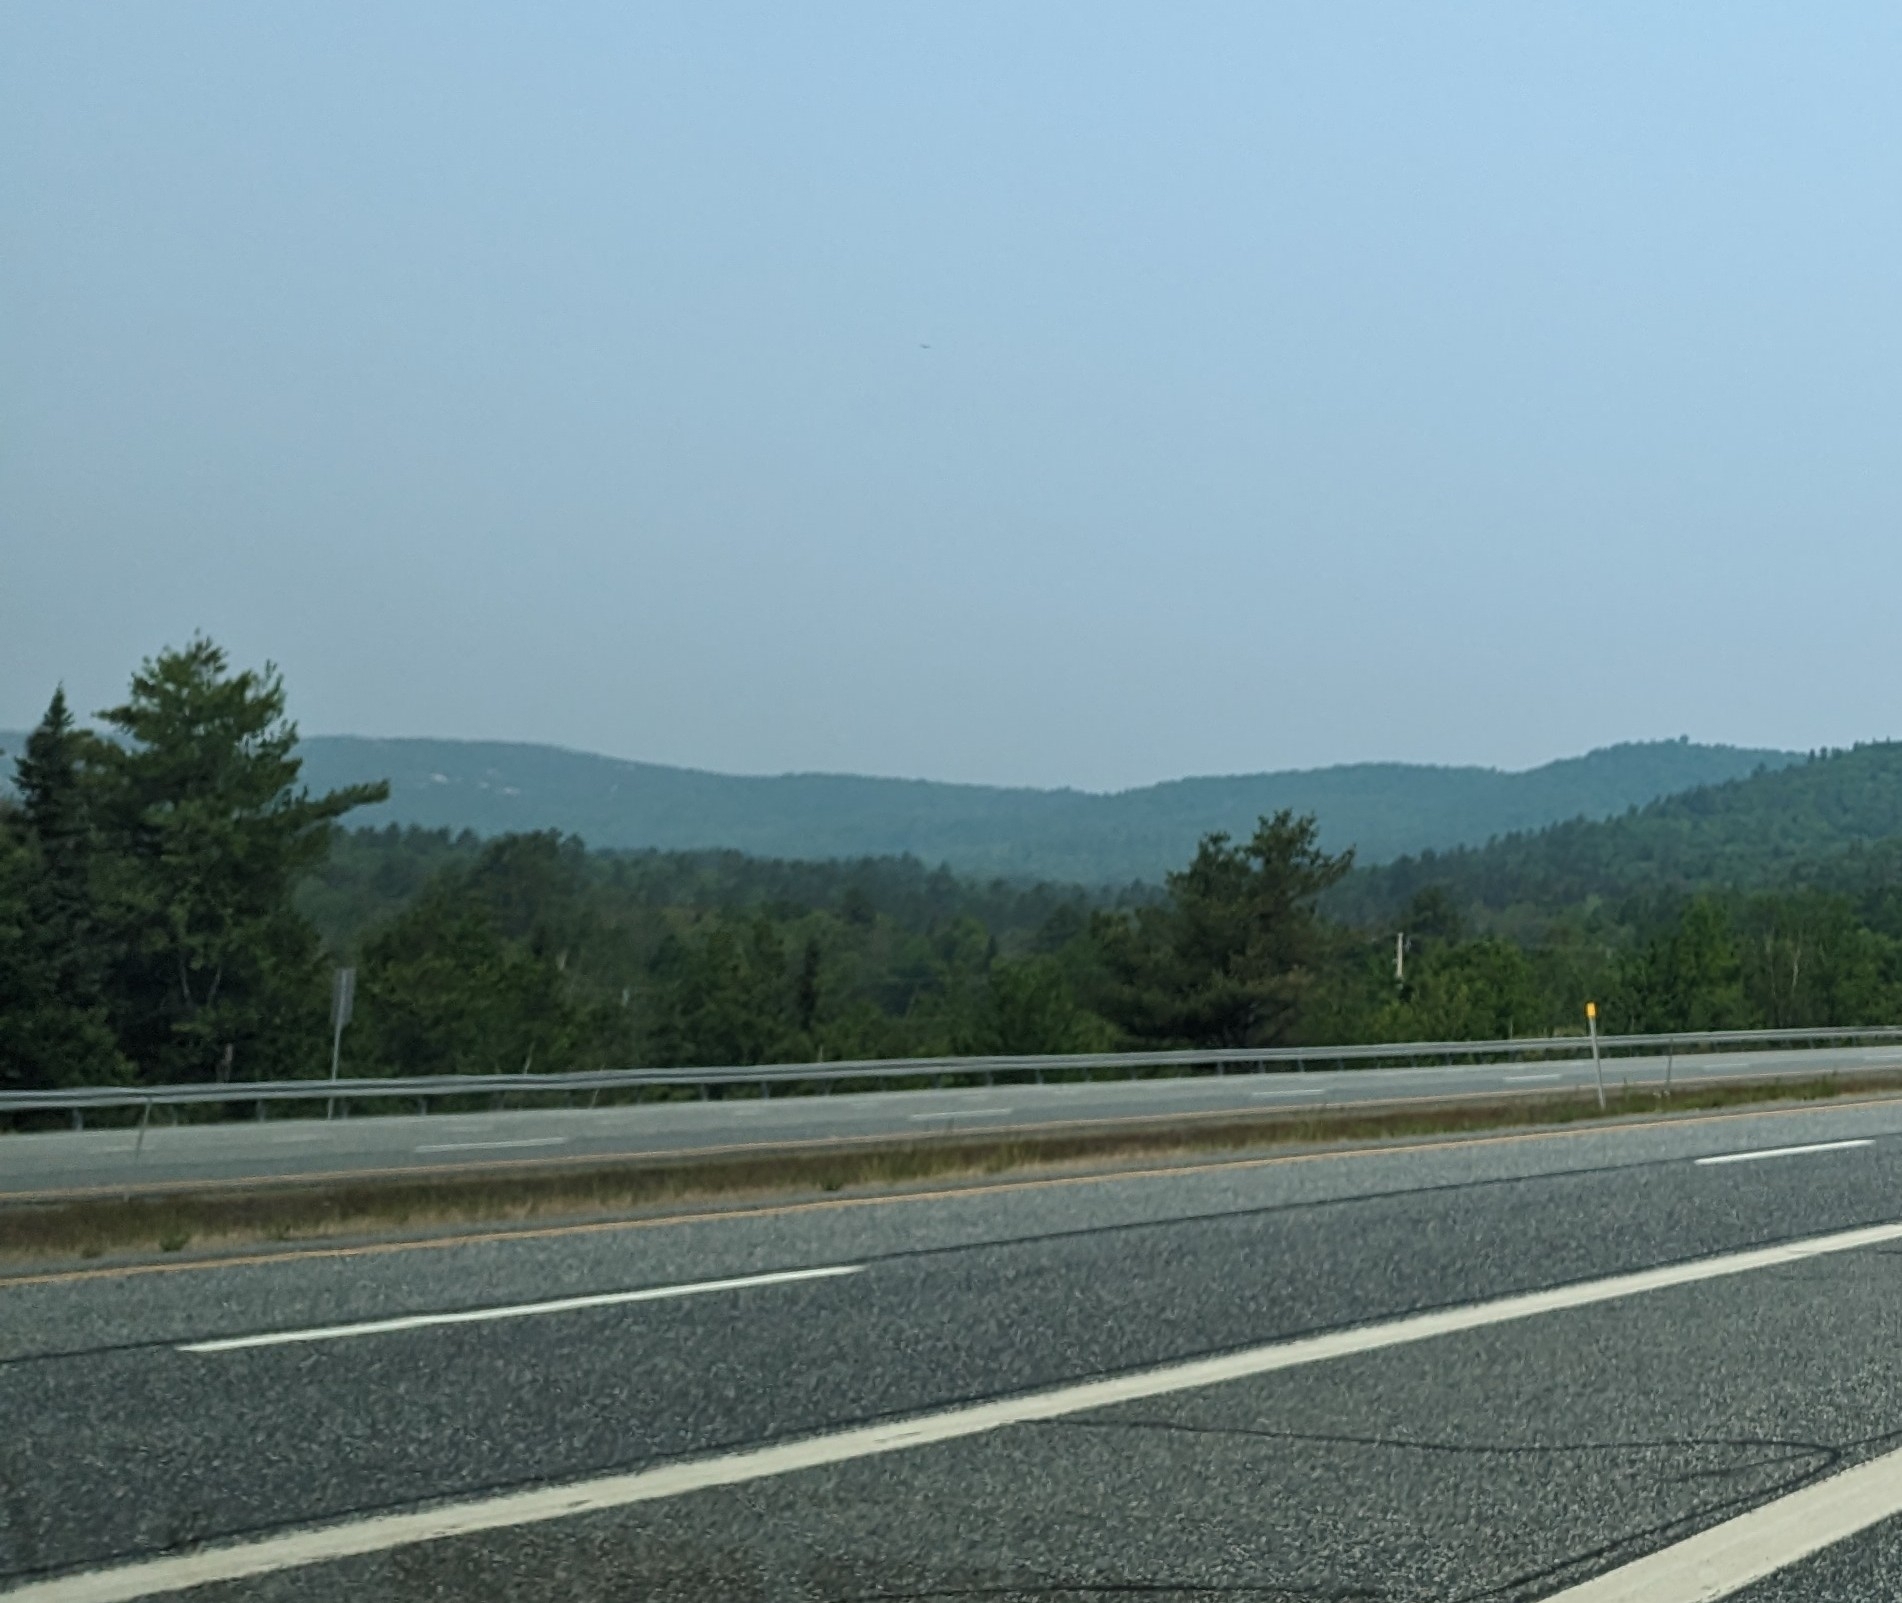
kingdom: Plantae
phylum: Tracheophyta
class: Pinopsida
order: Pinales
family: Pinaceae
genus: Pinus
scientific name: Pinus strobus
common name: Weymouth pine
